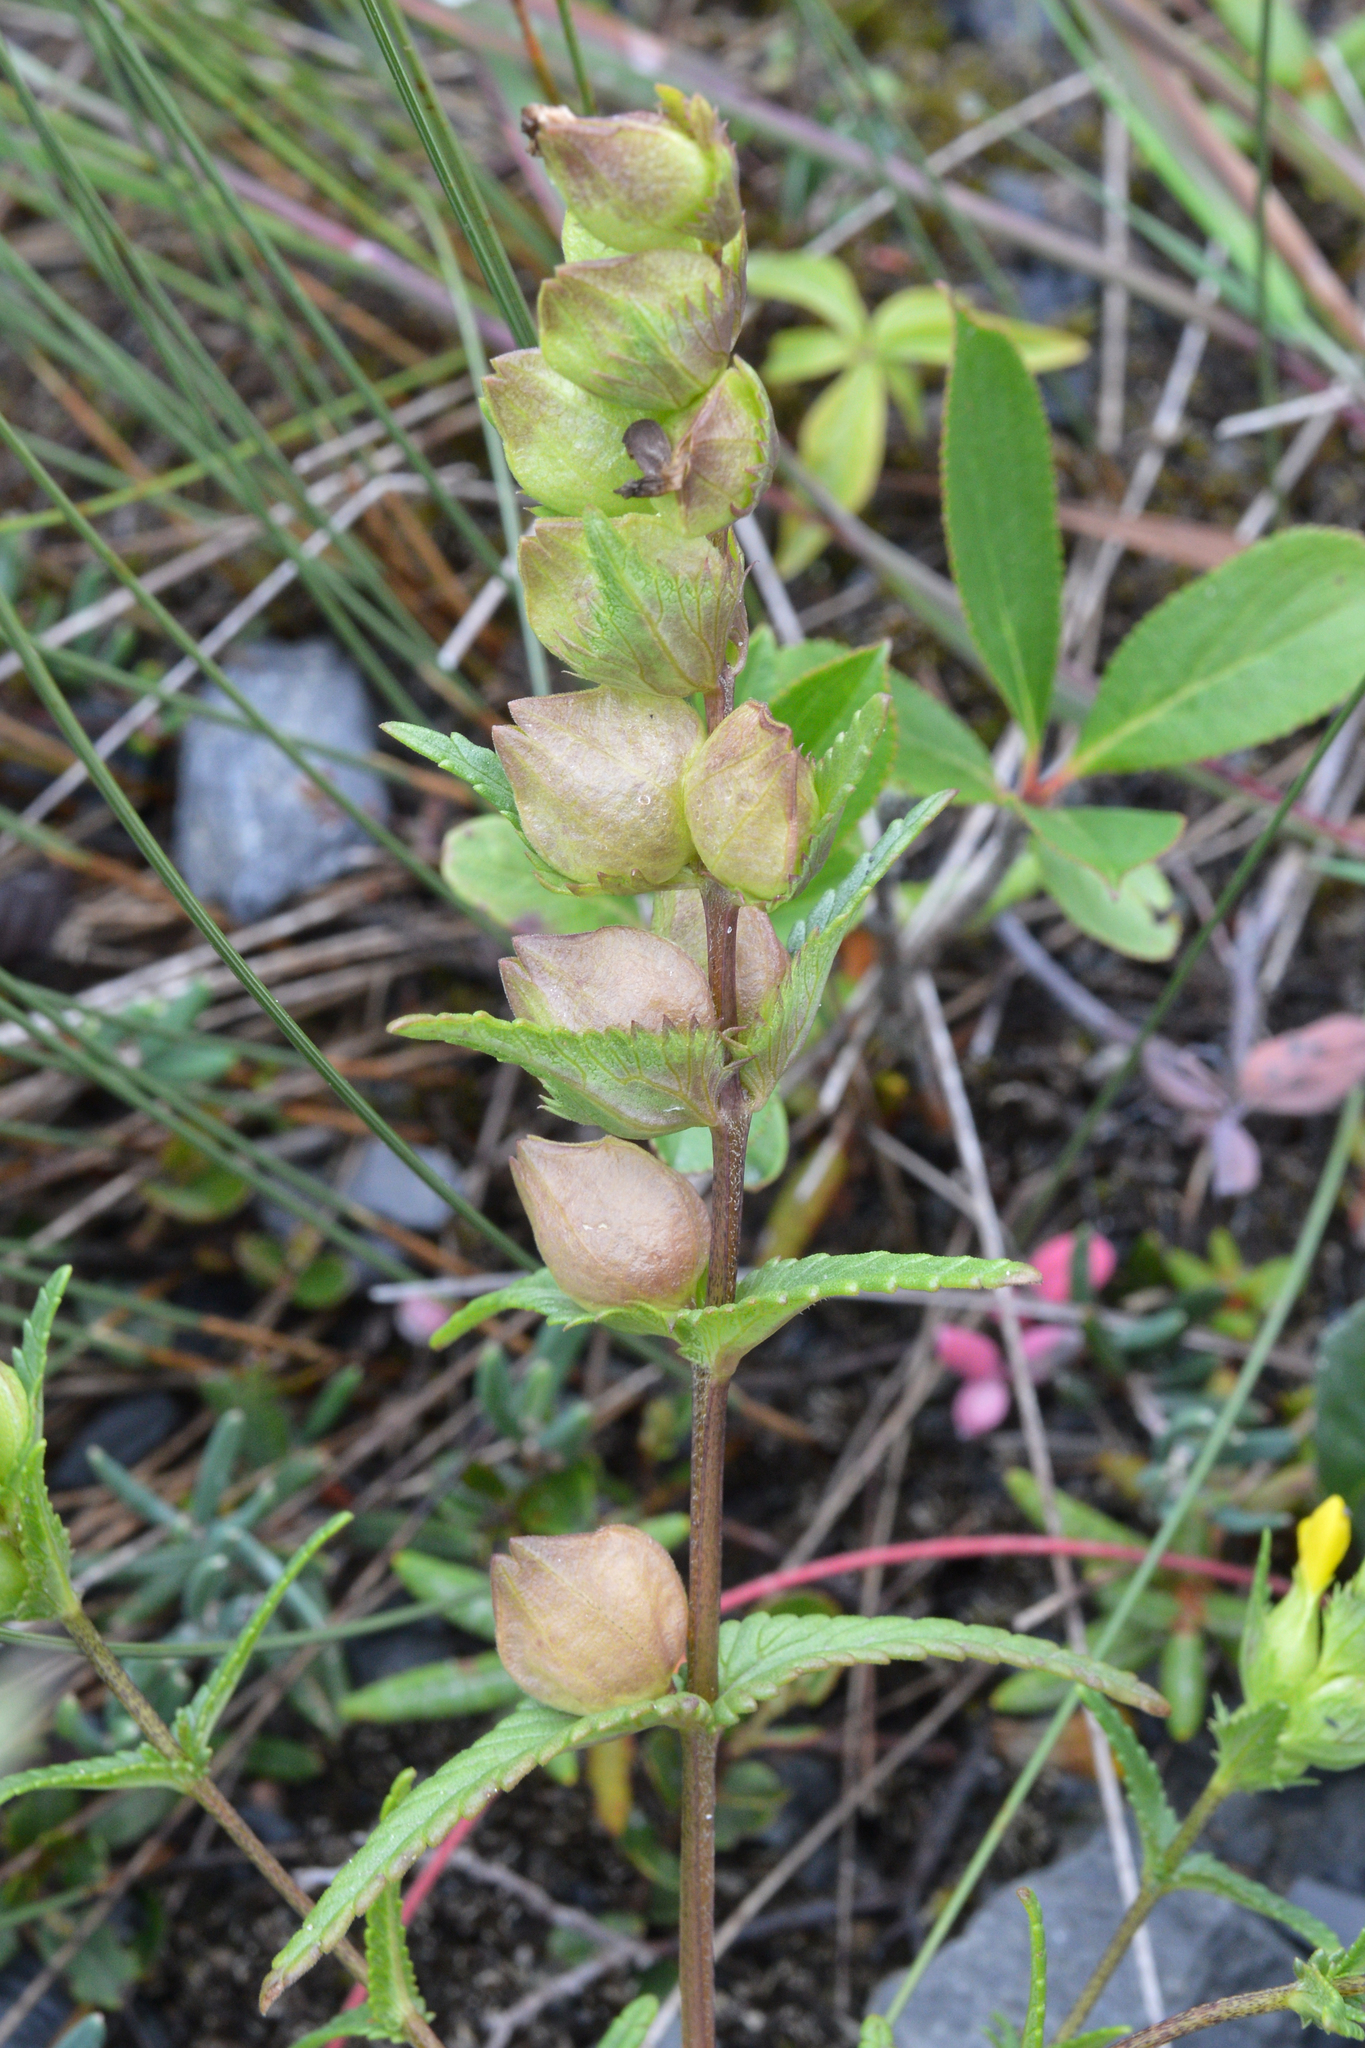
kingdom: Plantae
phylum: Tracheophyta
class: Magnoliopsida
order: Lamiales
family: Orobanchaceae
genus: Rhinanthus
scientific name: Rhinanthus minor
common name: Yellow-rattle
